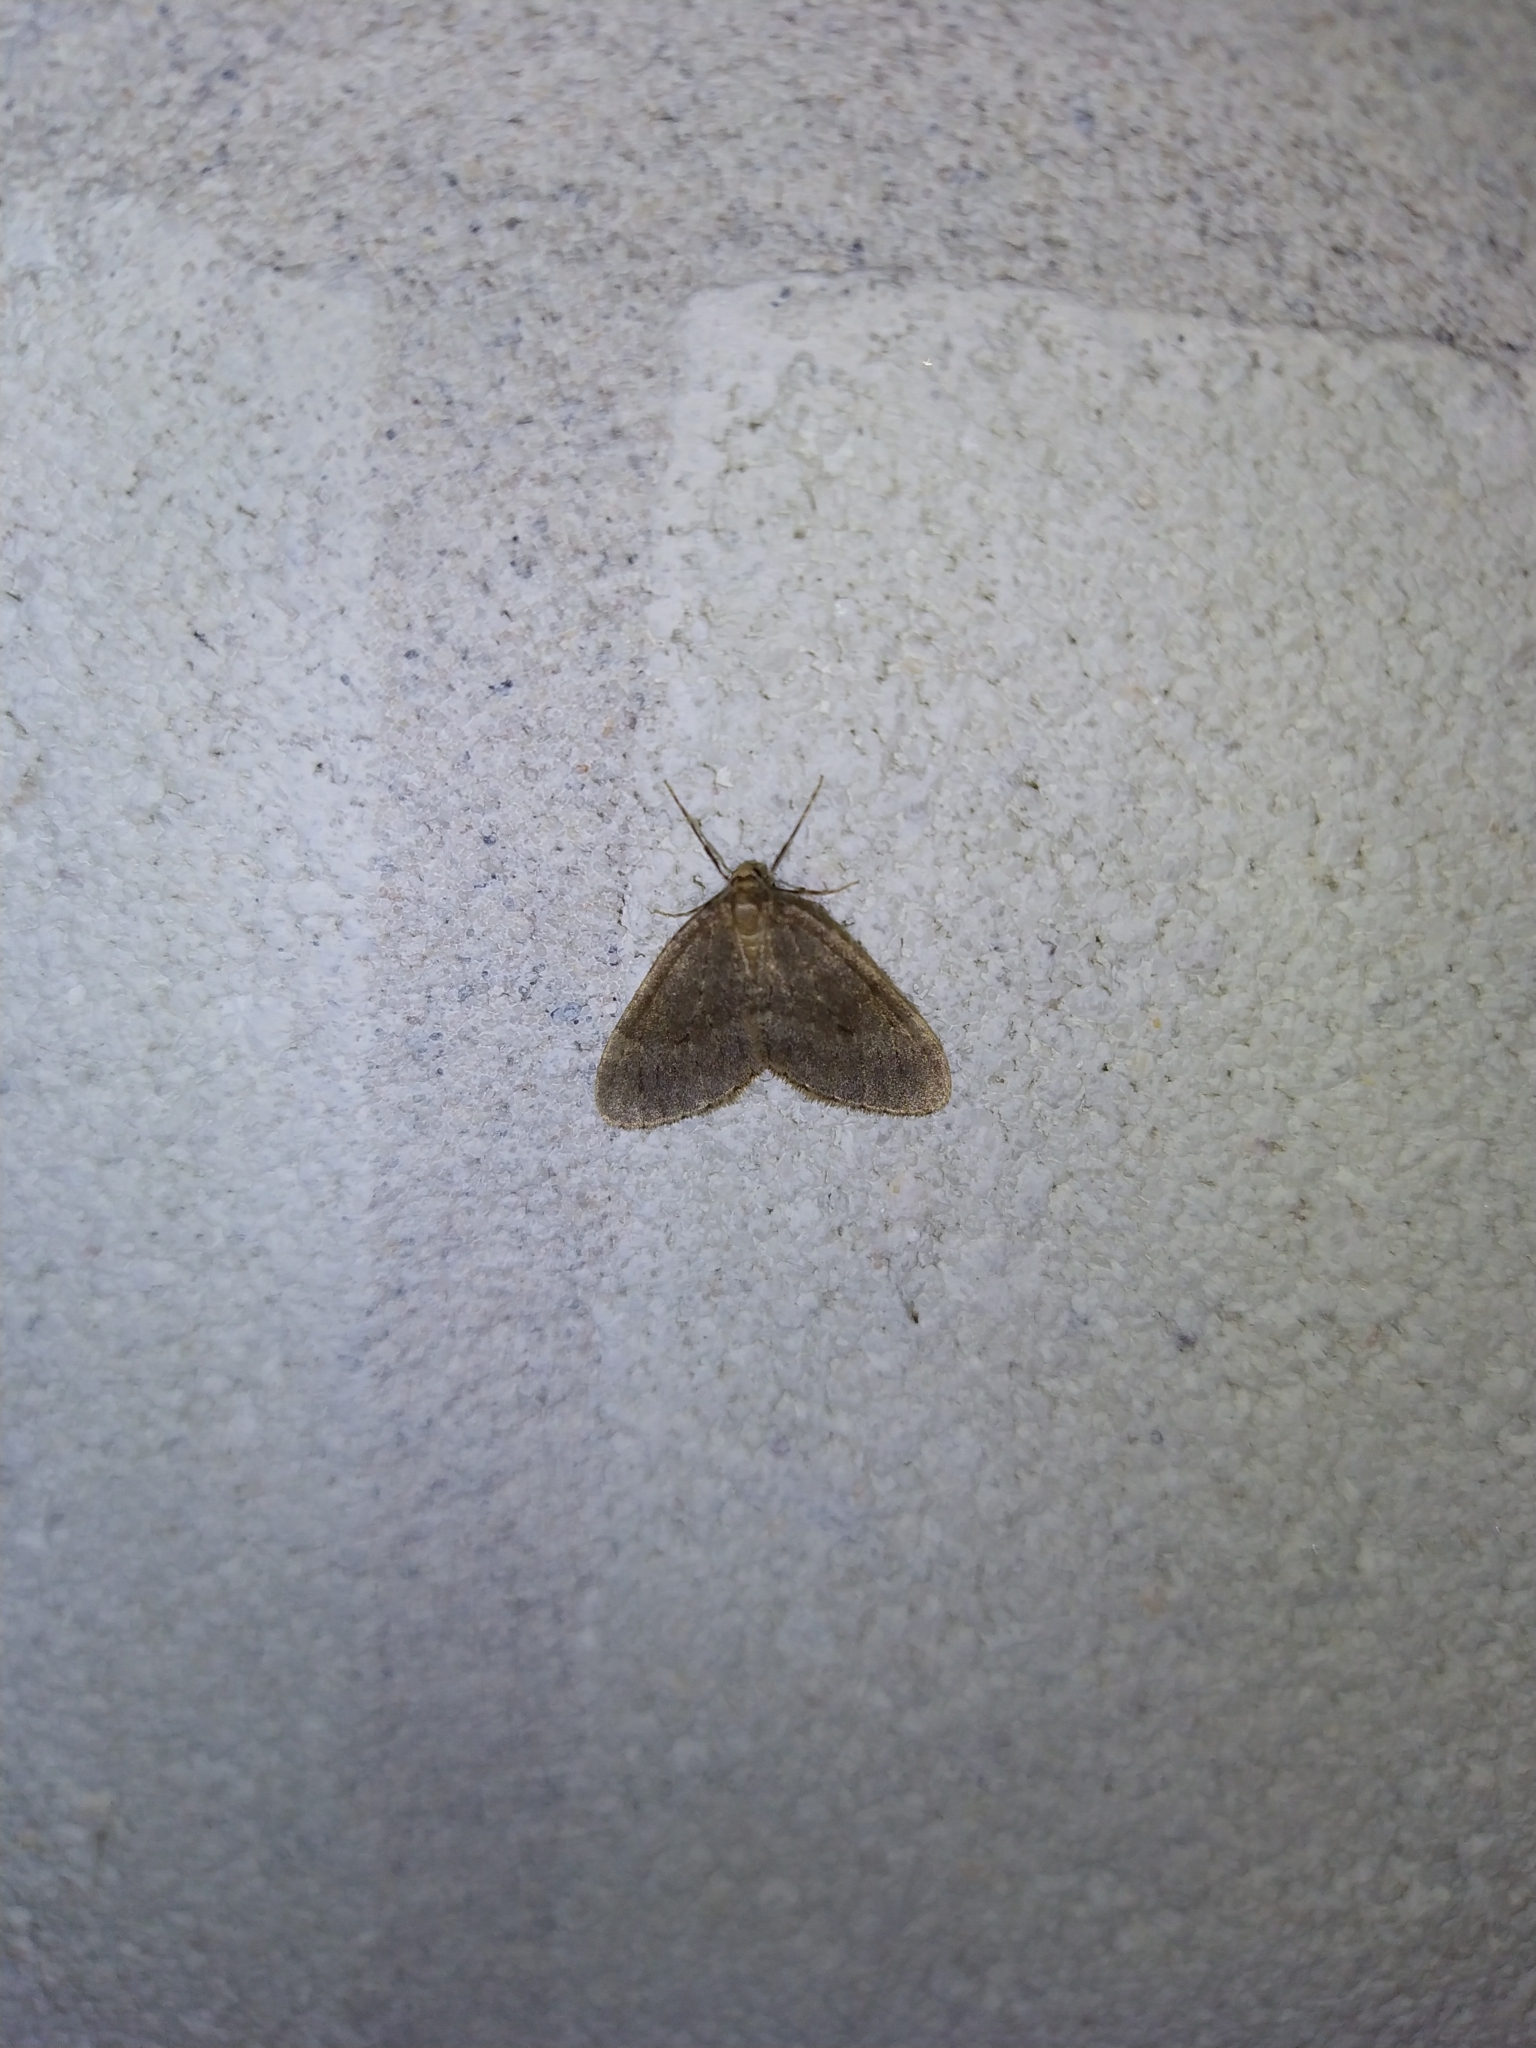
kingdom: Animalia
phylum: Arthropoda
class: Insecta
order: Lepidoptera
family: Geometridae
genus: Operophtera
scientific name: Operophtera brumata
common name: Winter moth
